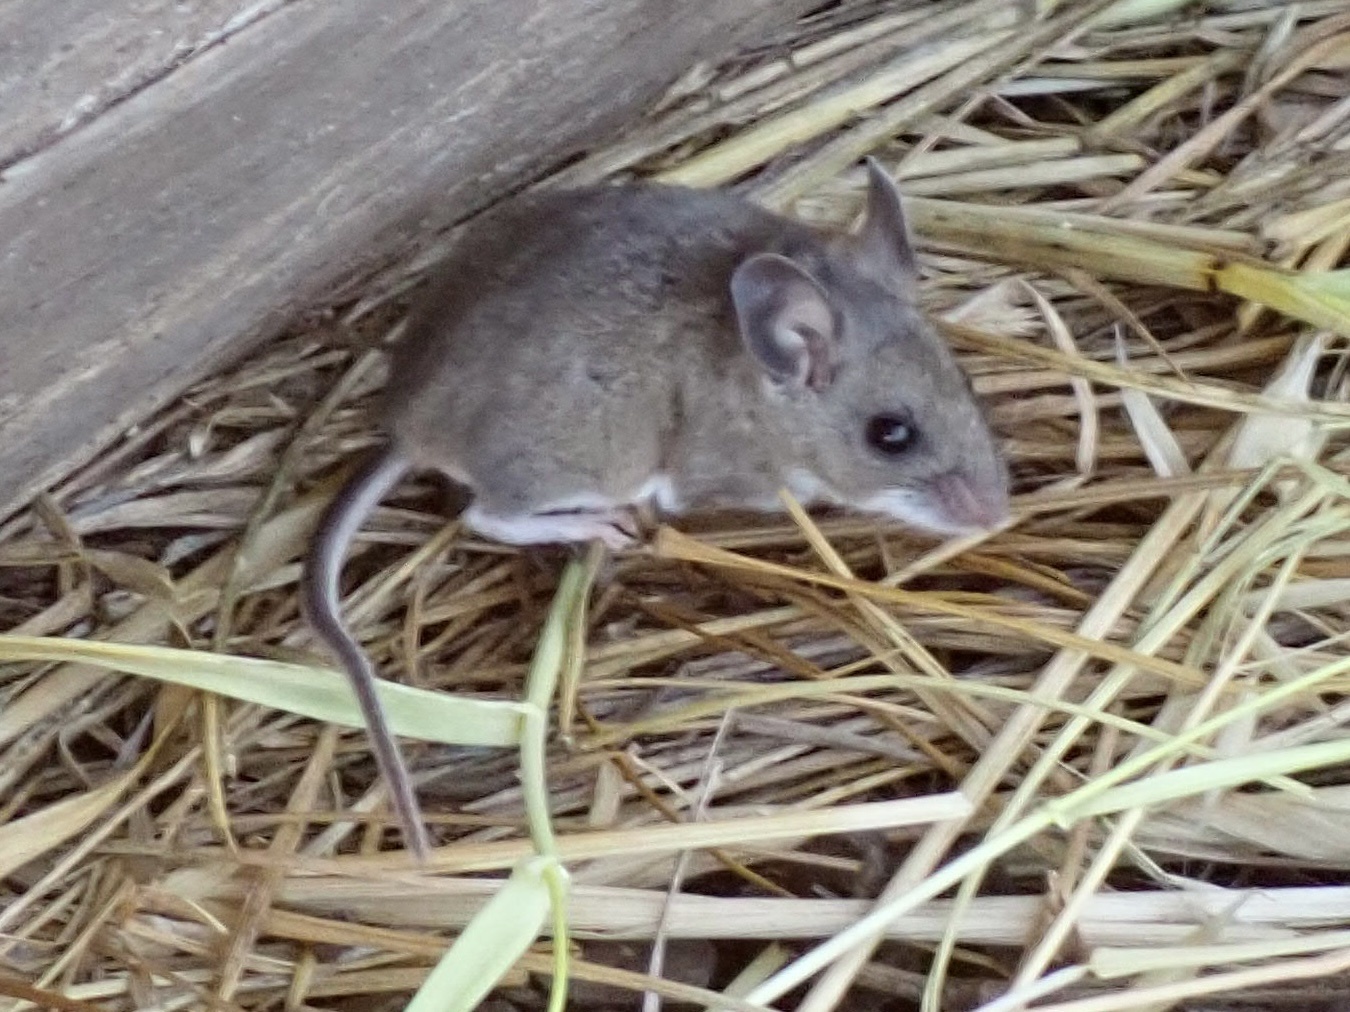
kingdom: Animalia
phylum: Chordata
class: Mammalia
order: Rodentia
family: Cricetidae
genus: Peromyscus
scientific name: Peromyscus maniculatus
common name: Deer mouse
